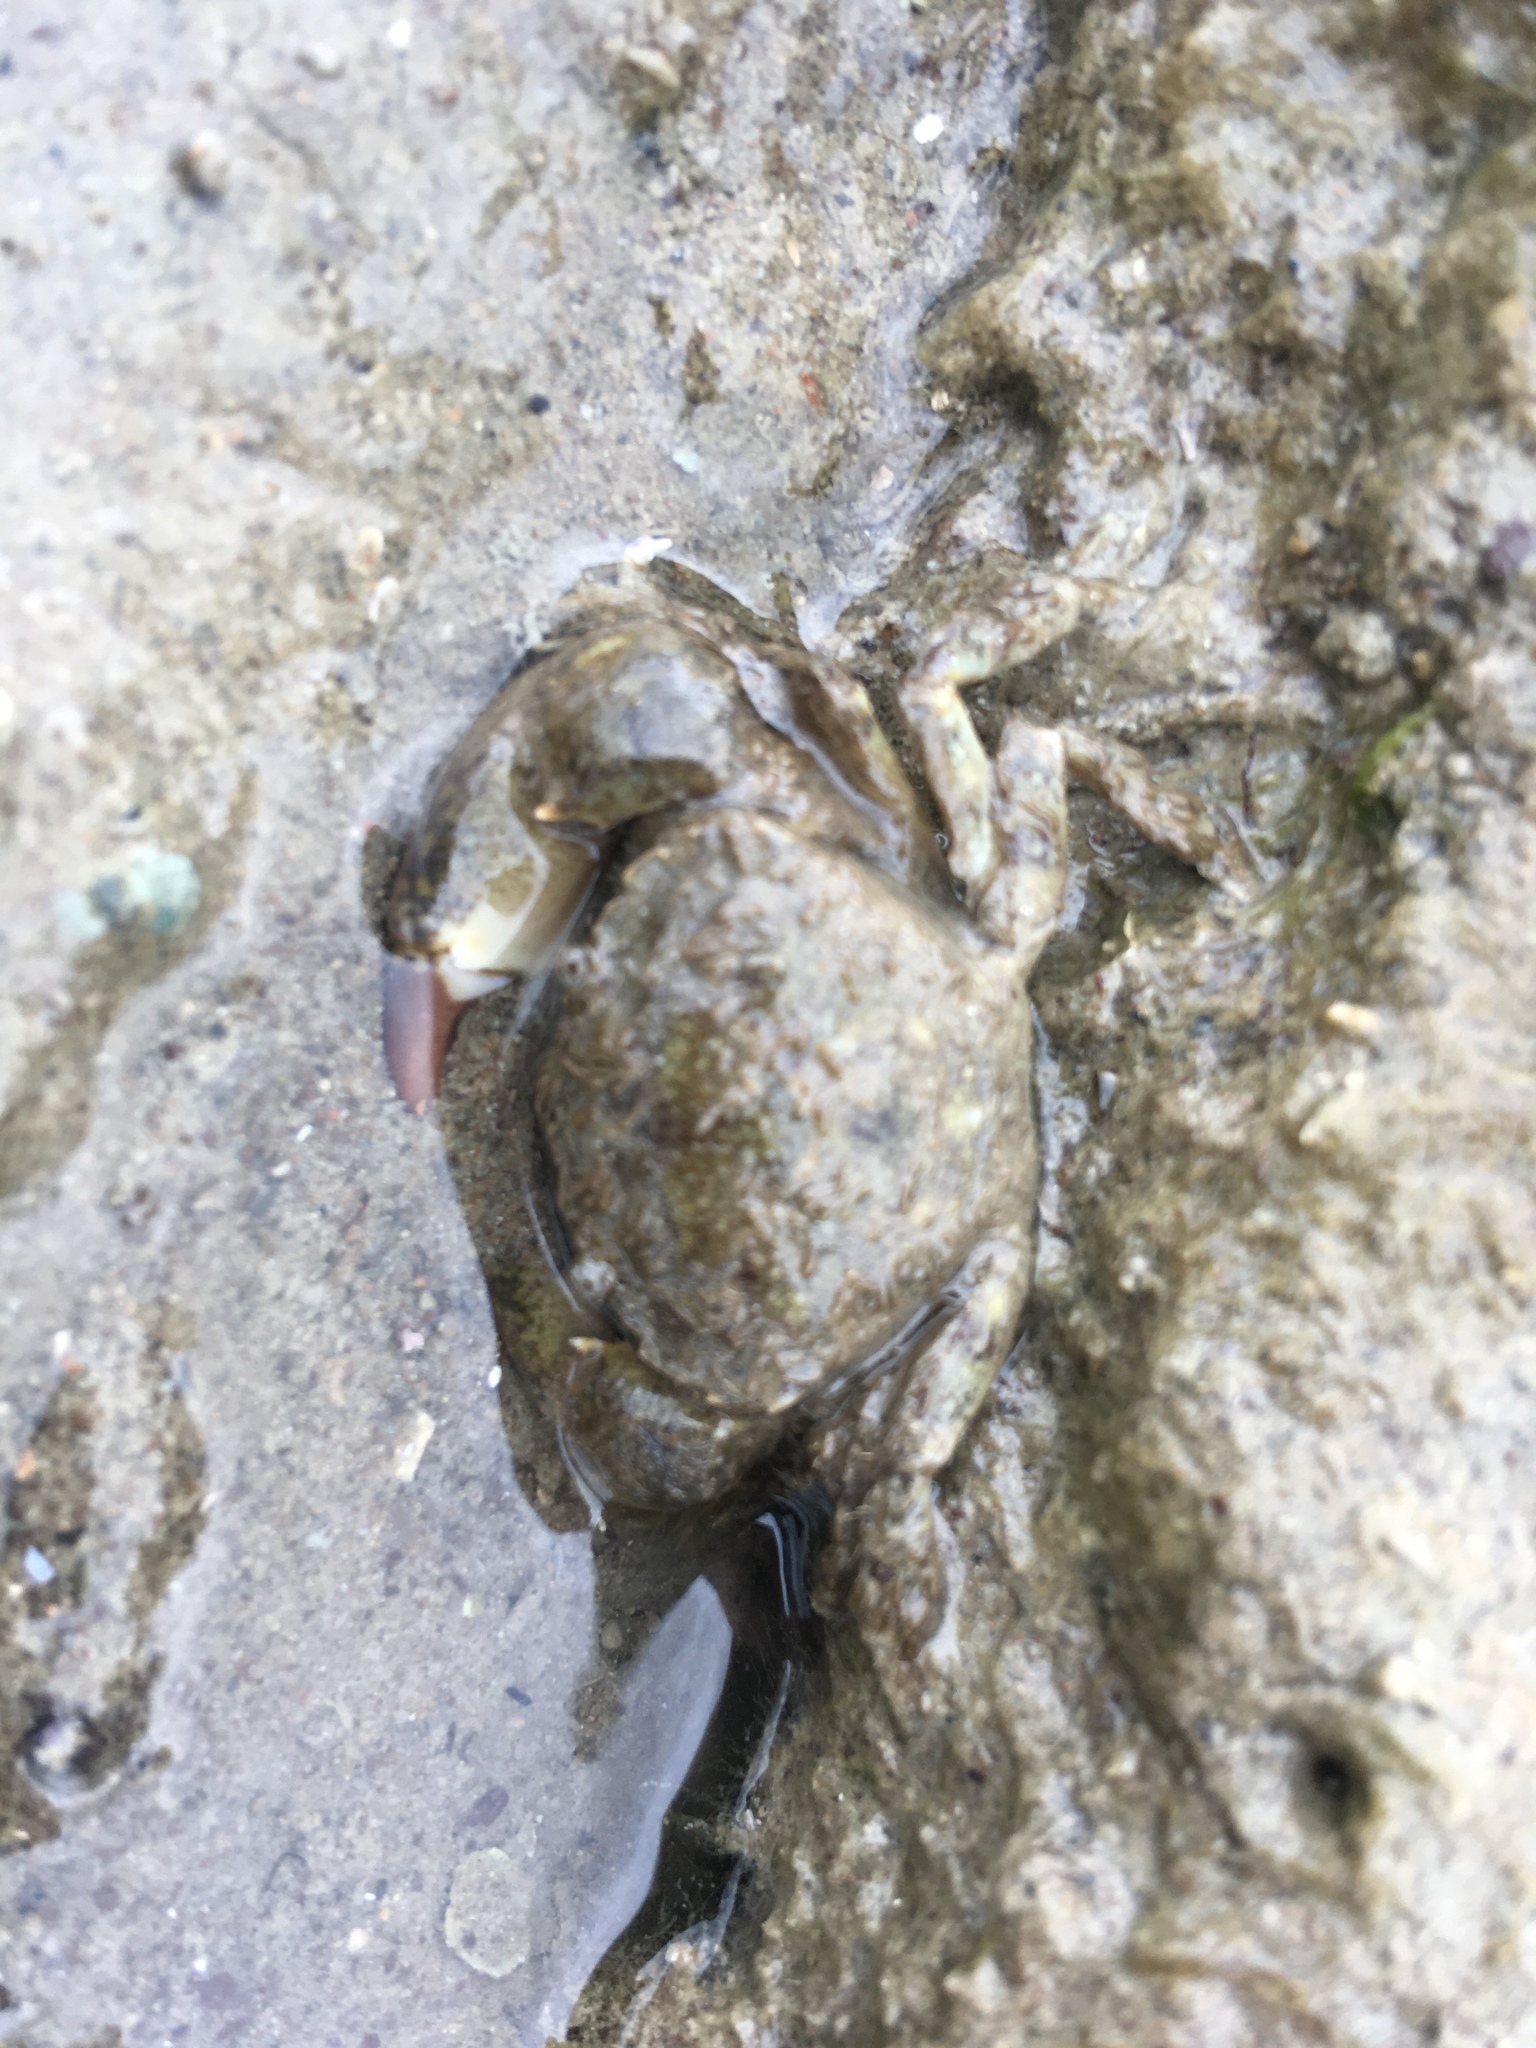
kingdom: Animalia
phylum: Arthropoda
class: Malacostraca
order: Decapoda
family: Pilumnidae
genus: Pilumnopeus
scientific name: Pilumnopeus serratifrons
